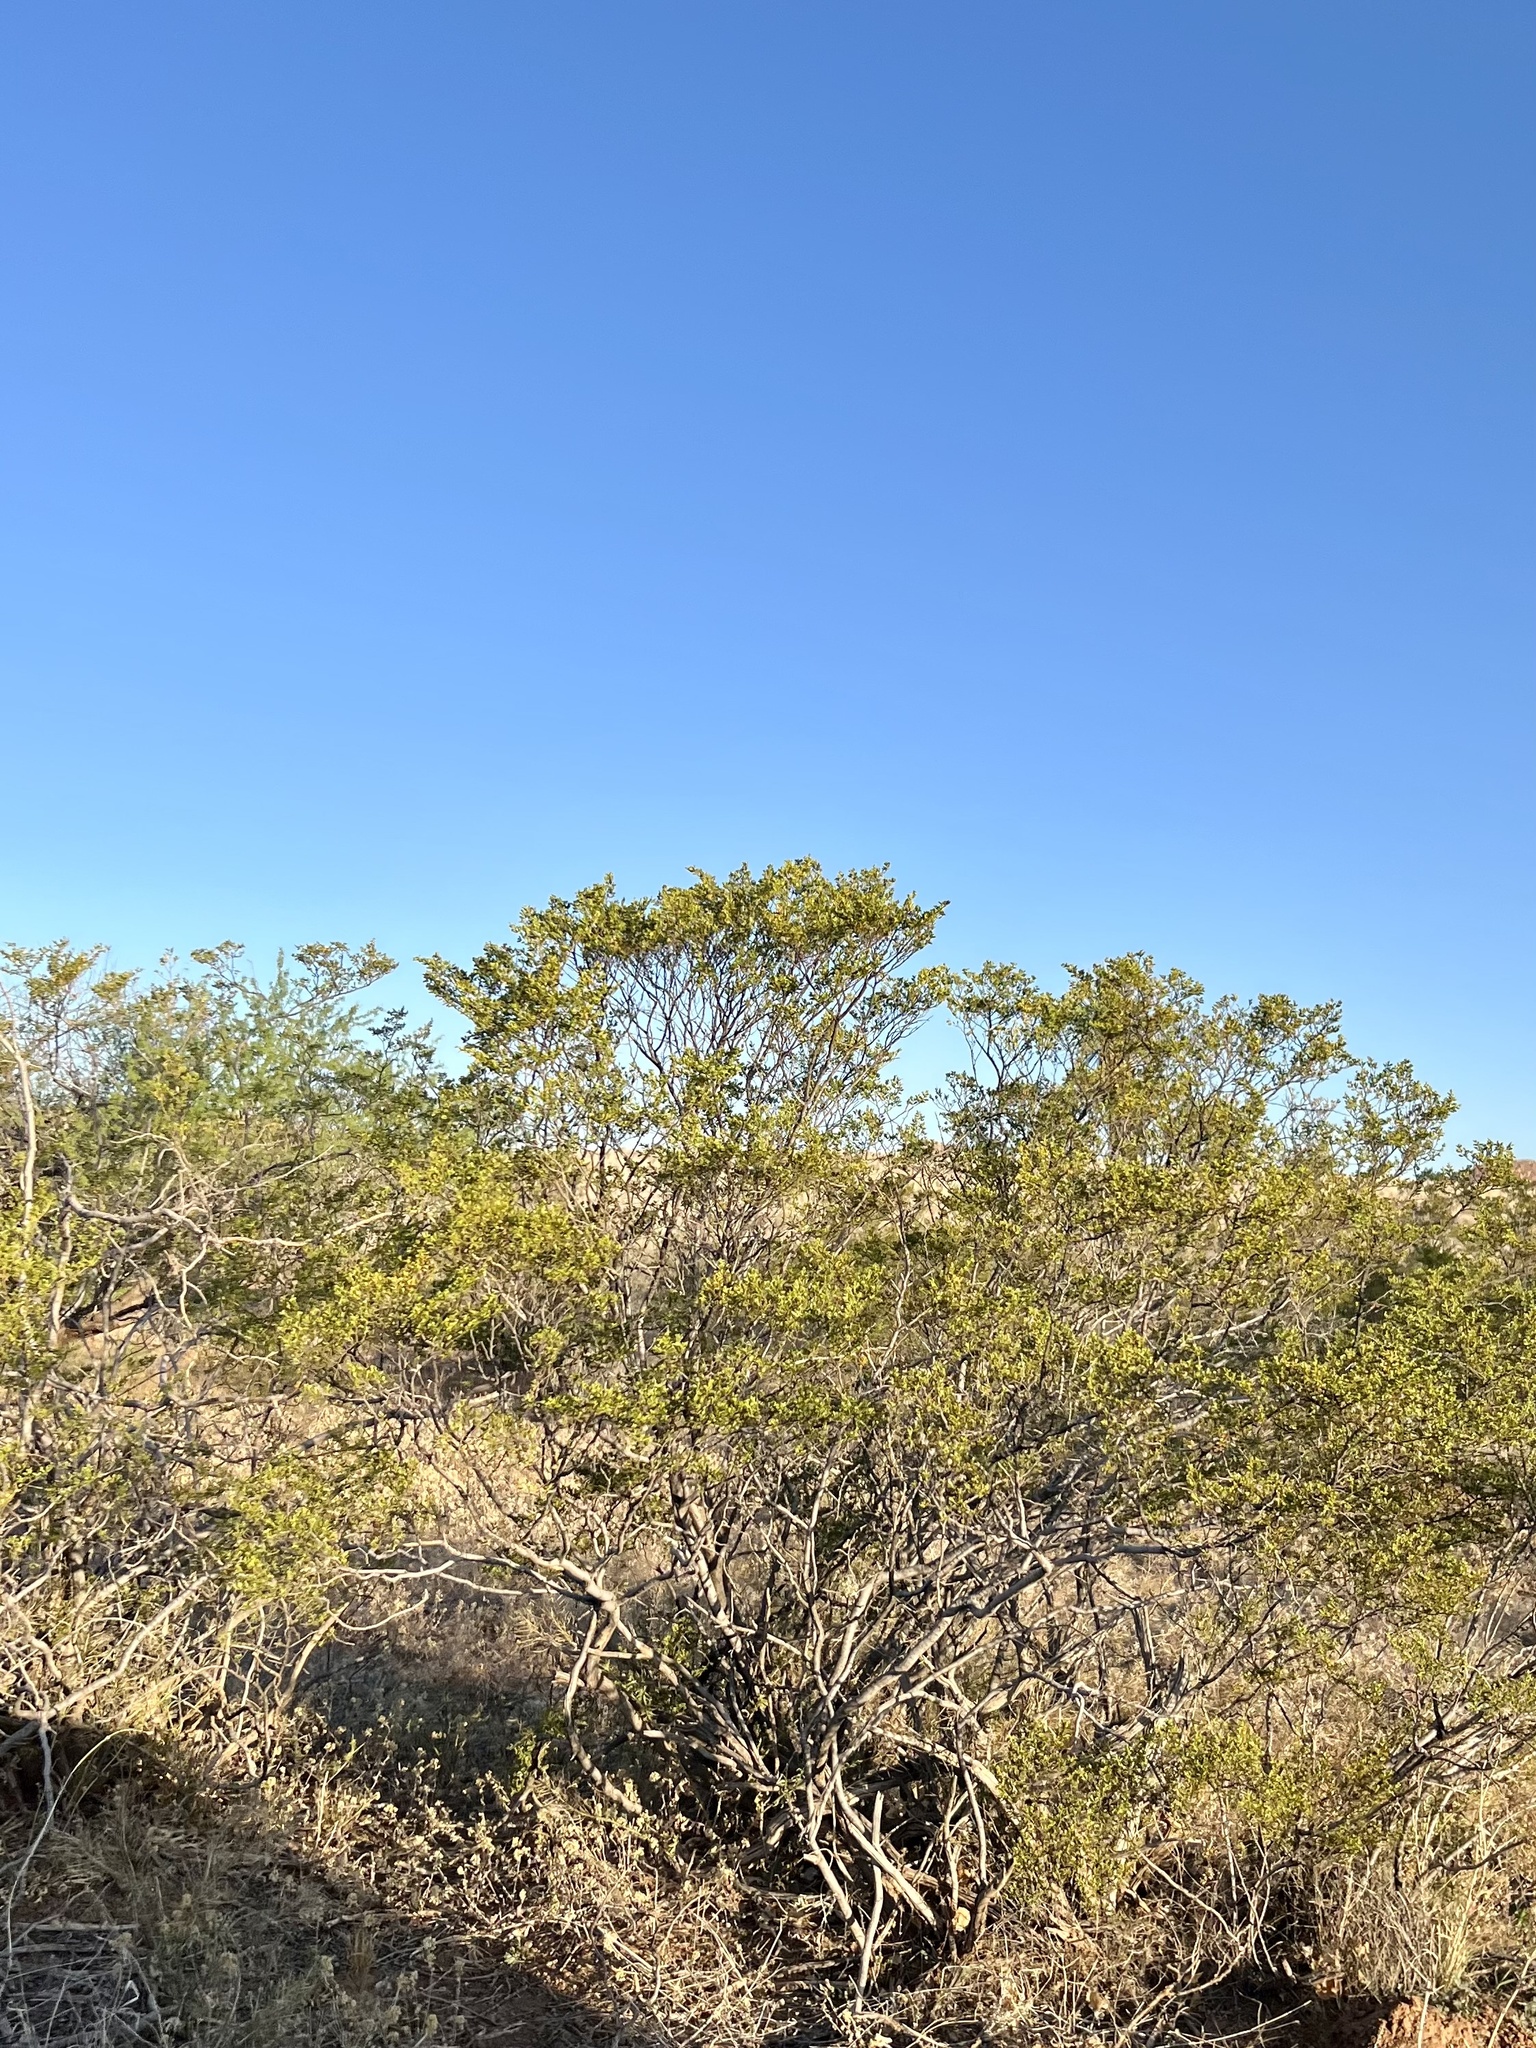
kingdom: Plantae
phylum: Tracheophyta
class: Magnoliopsida
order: Zygophyllales
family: Zygophyllaceae
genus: Larrea
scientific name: Larrea tridentata
